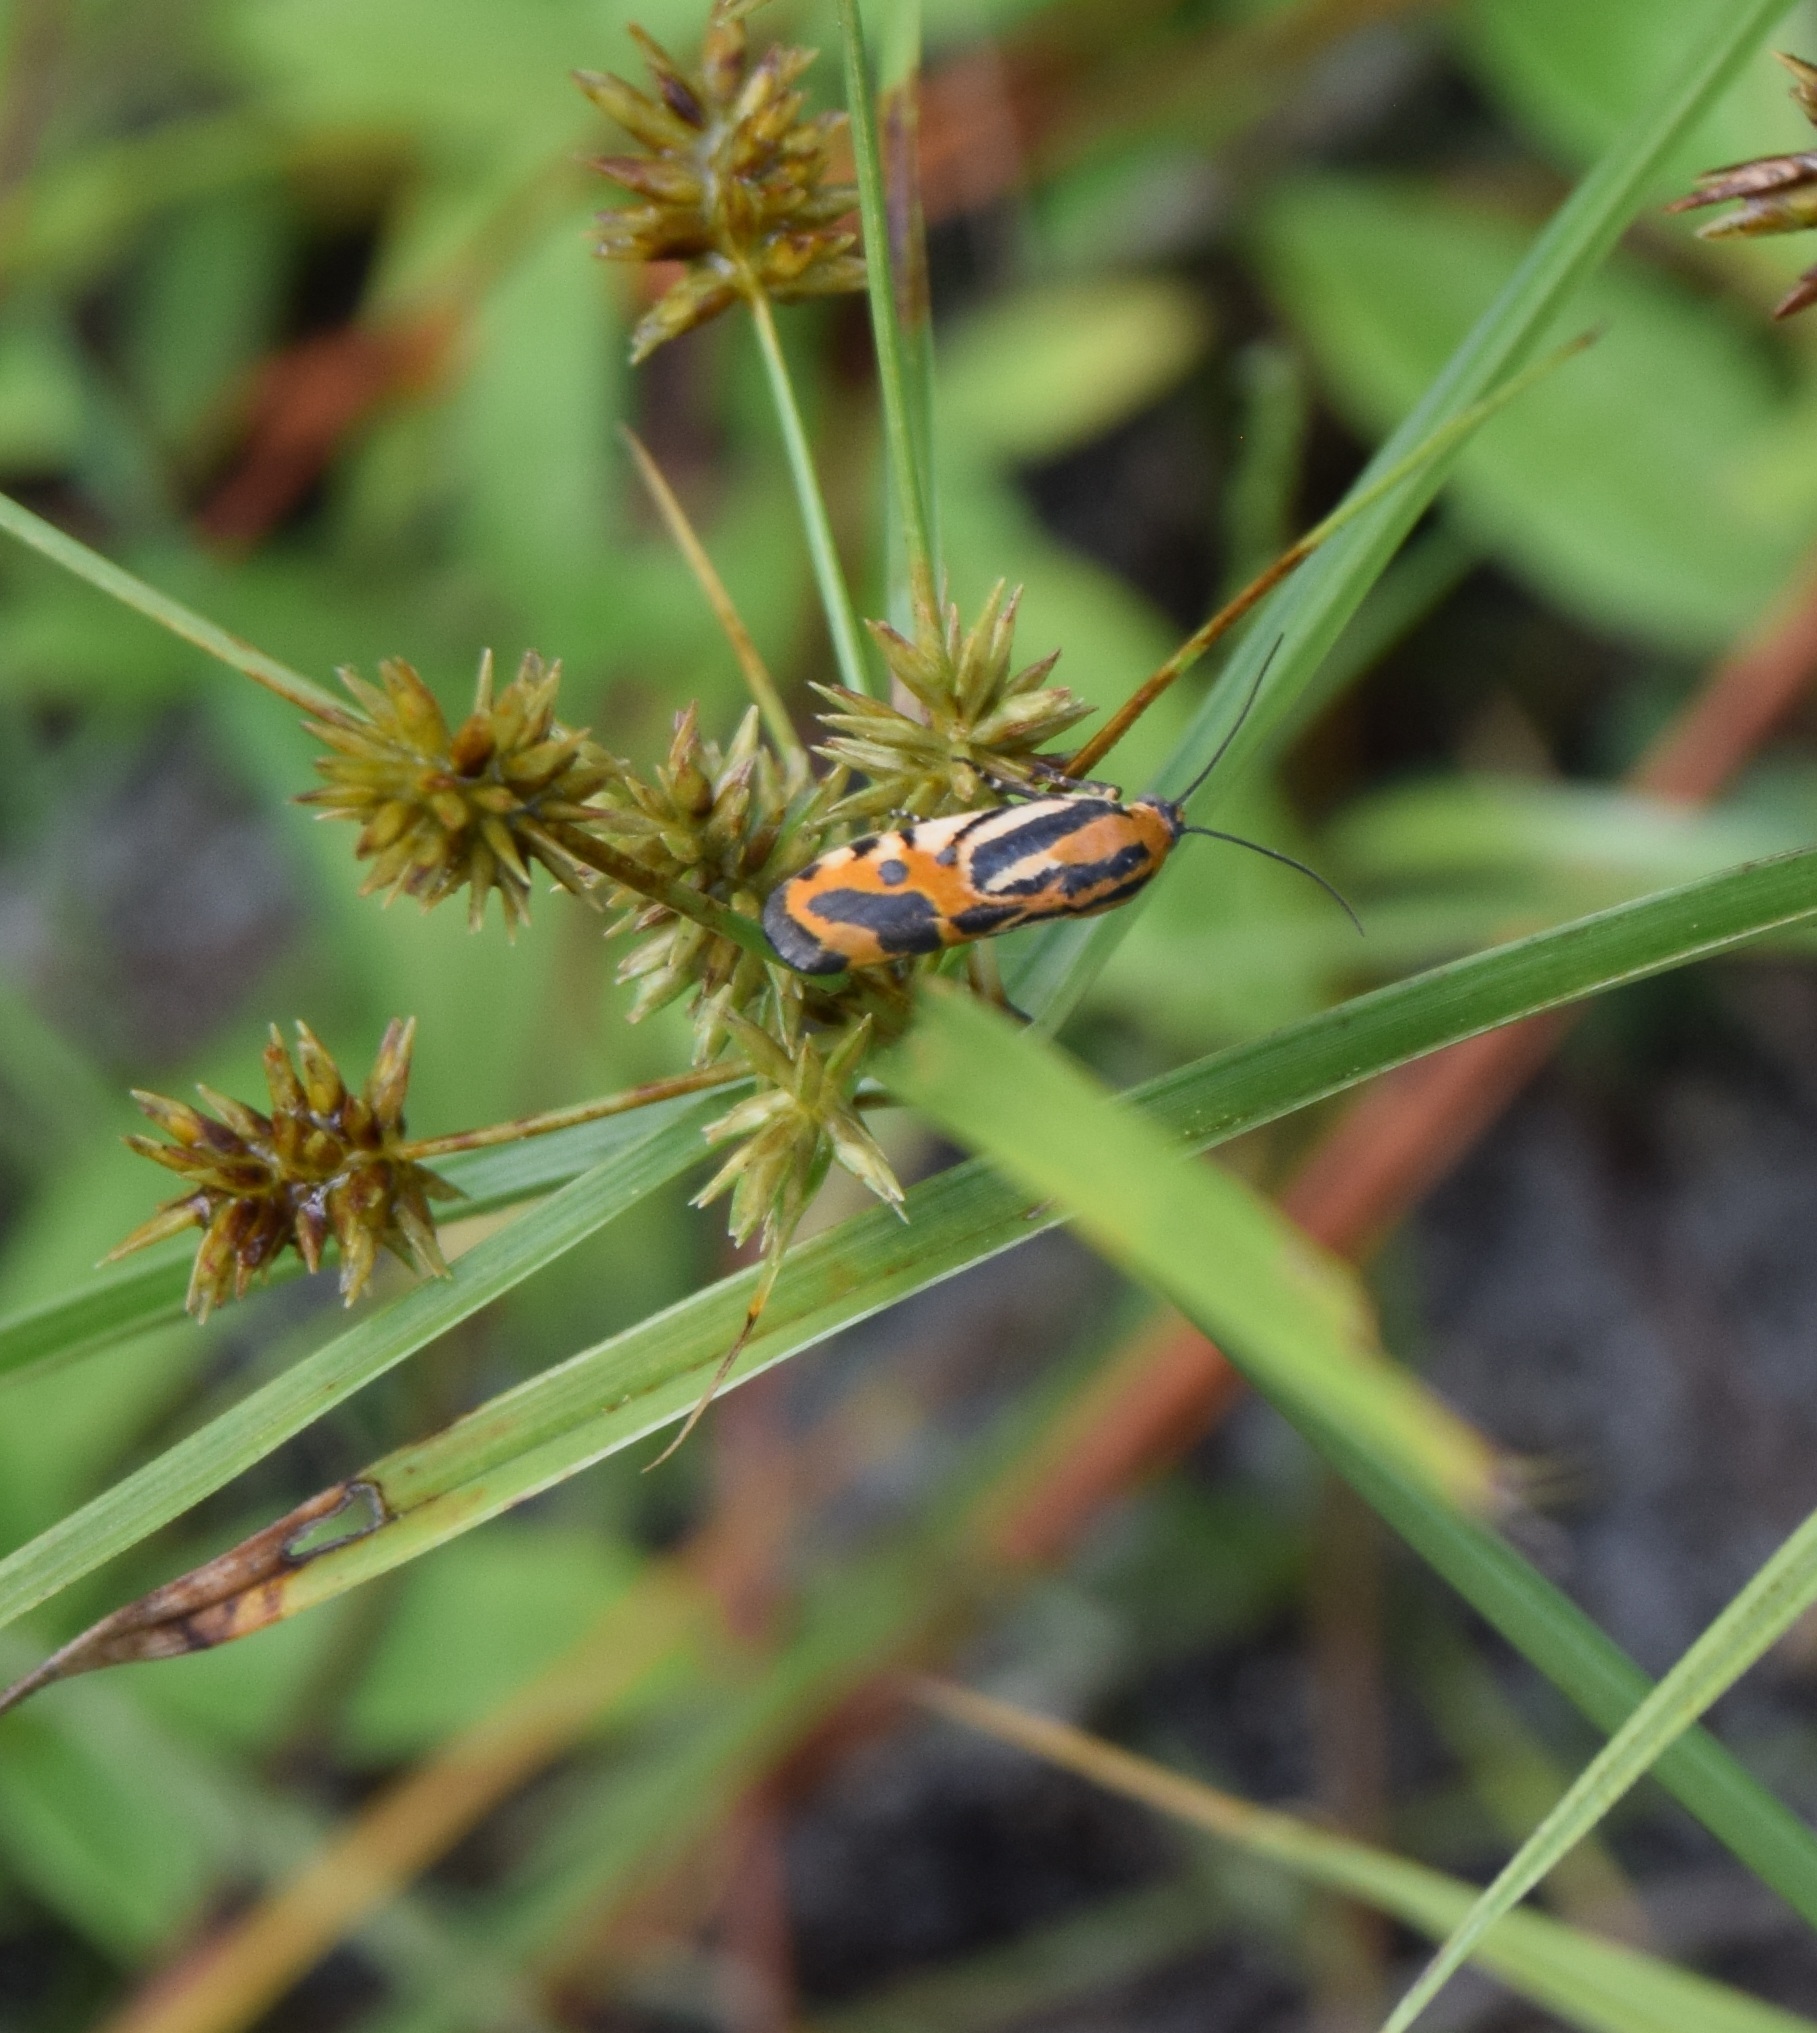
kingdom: Animalia
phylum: Arthropoda
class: Insecta
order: Lepidoptera
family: Noctuidae
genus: Acontia
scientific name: Acontia onagrus
